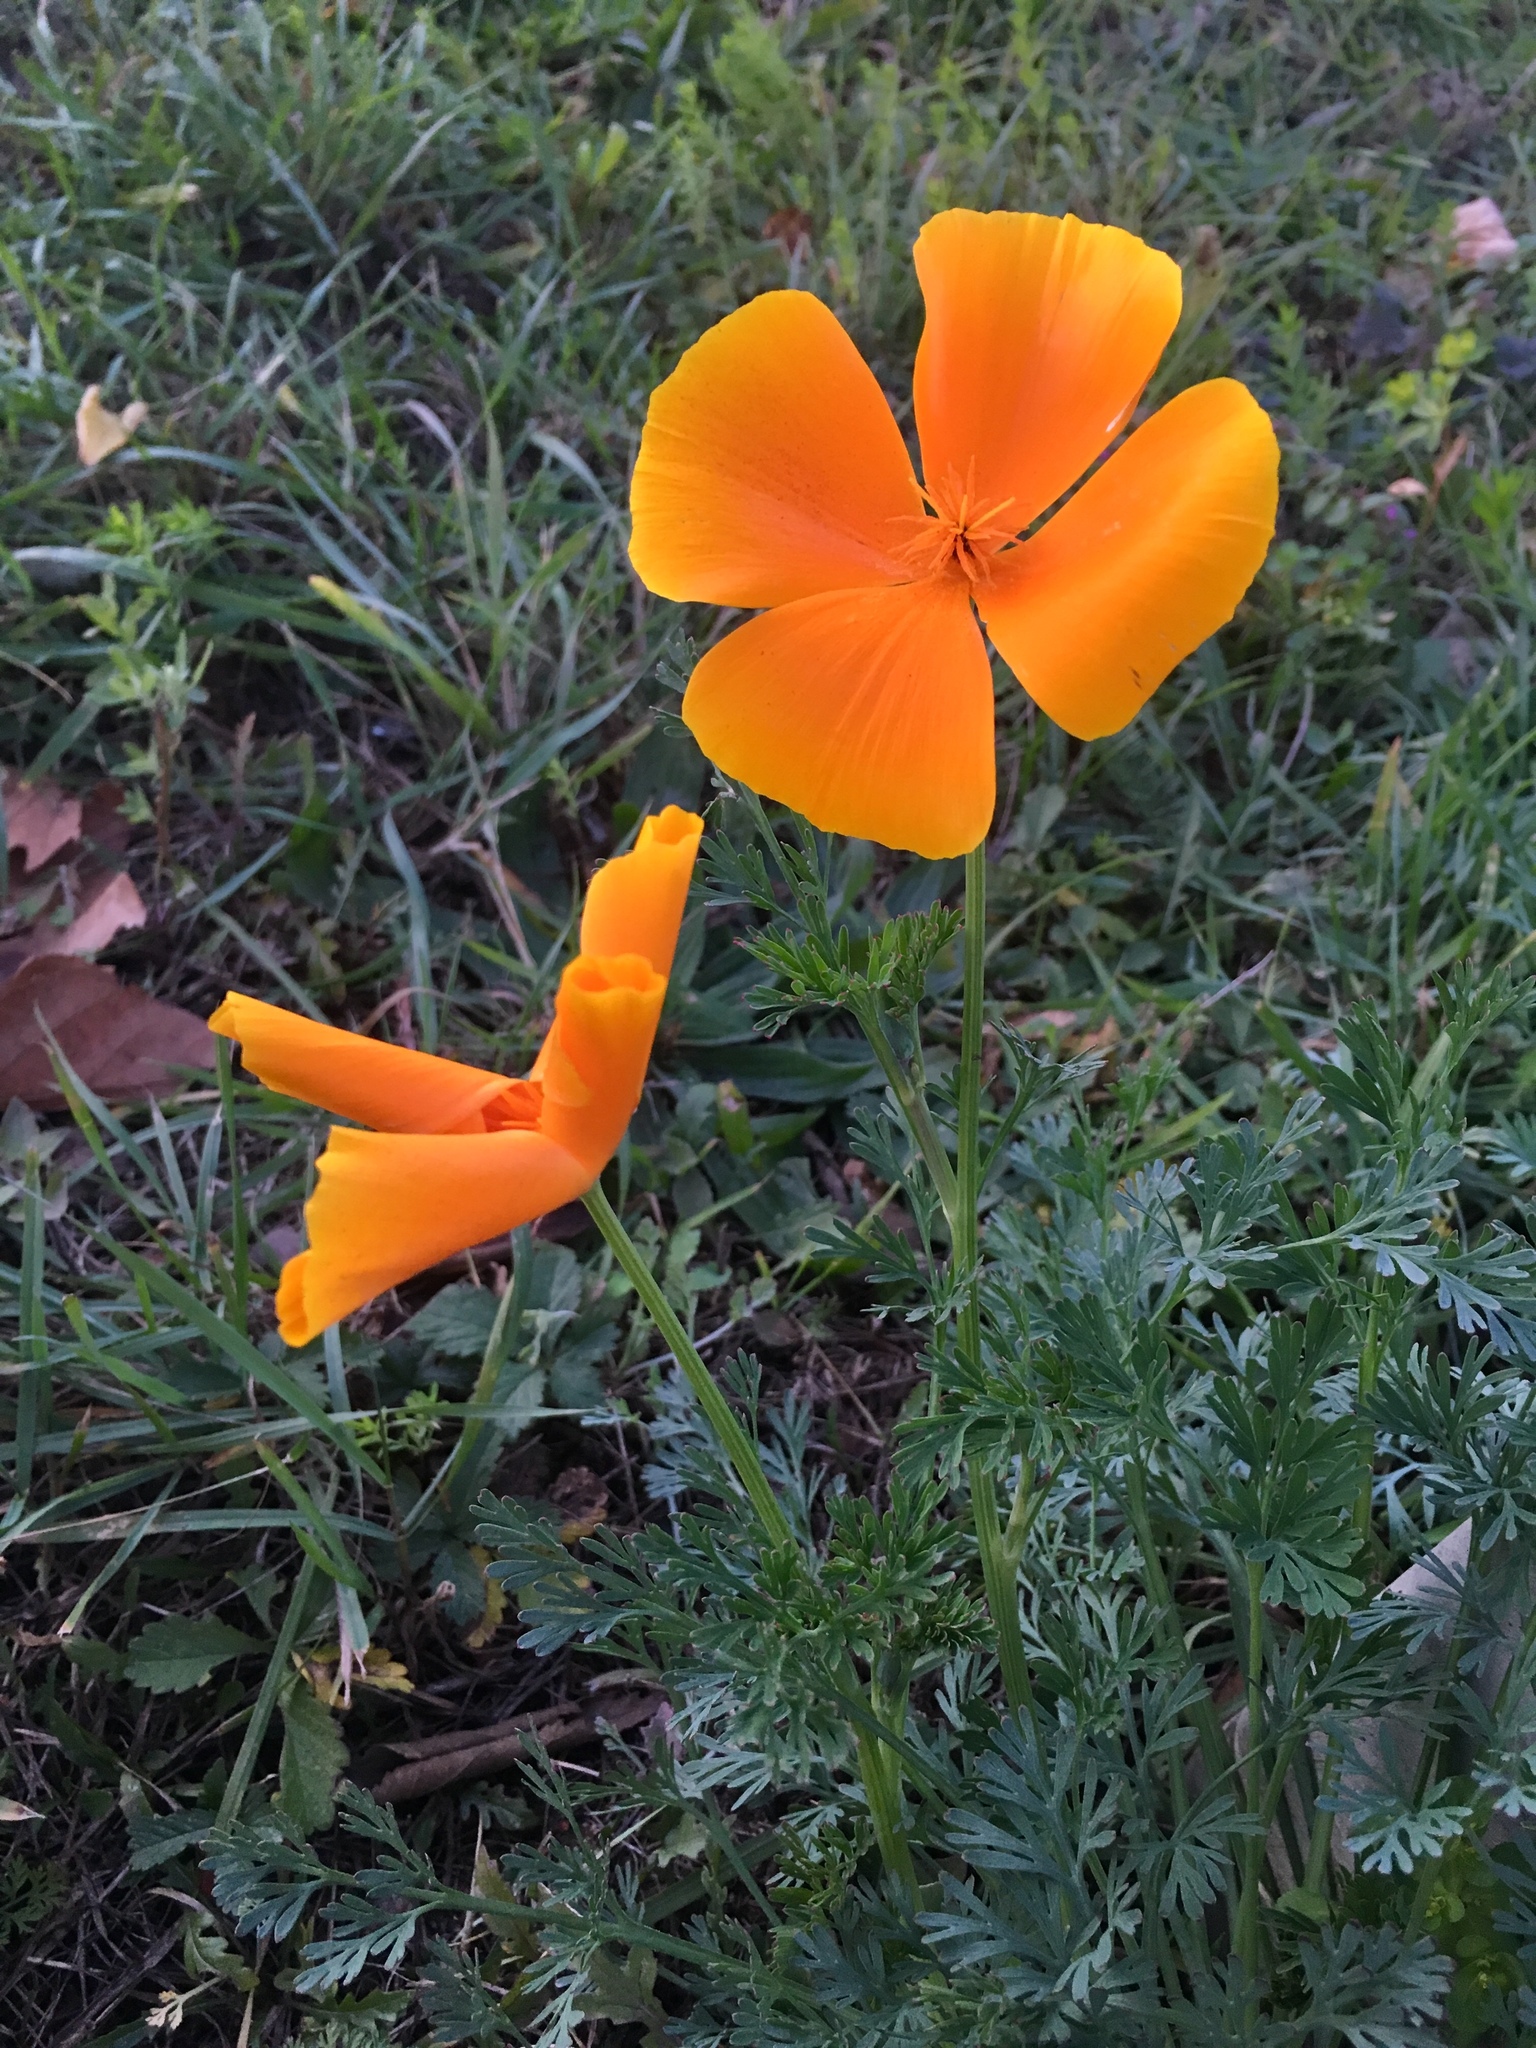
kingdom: Plantae
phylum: Tracheophyta
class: Magnoliopsida
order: Ranunculales
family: Papaveraceae
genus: Eschscholzia
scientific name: Eschscholzia californica
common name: California poppy
